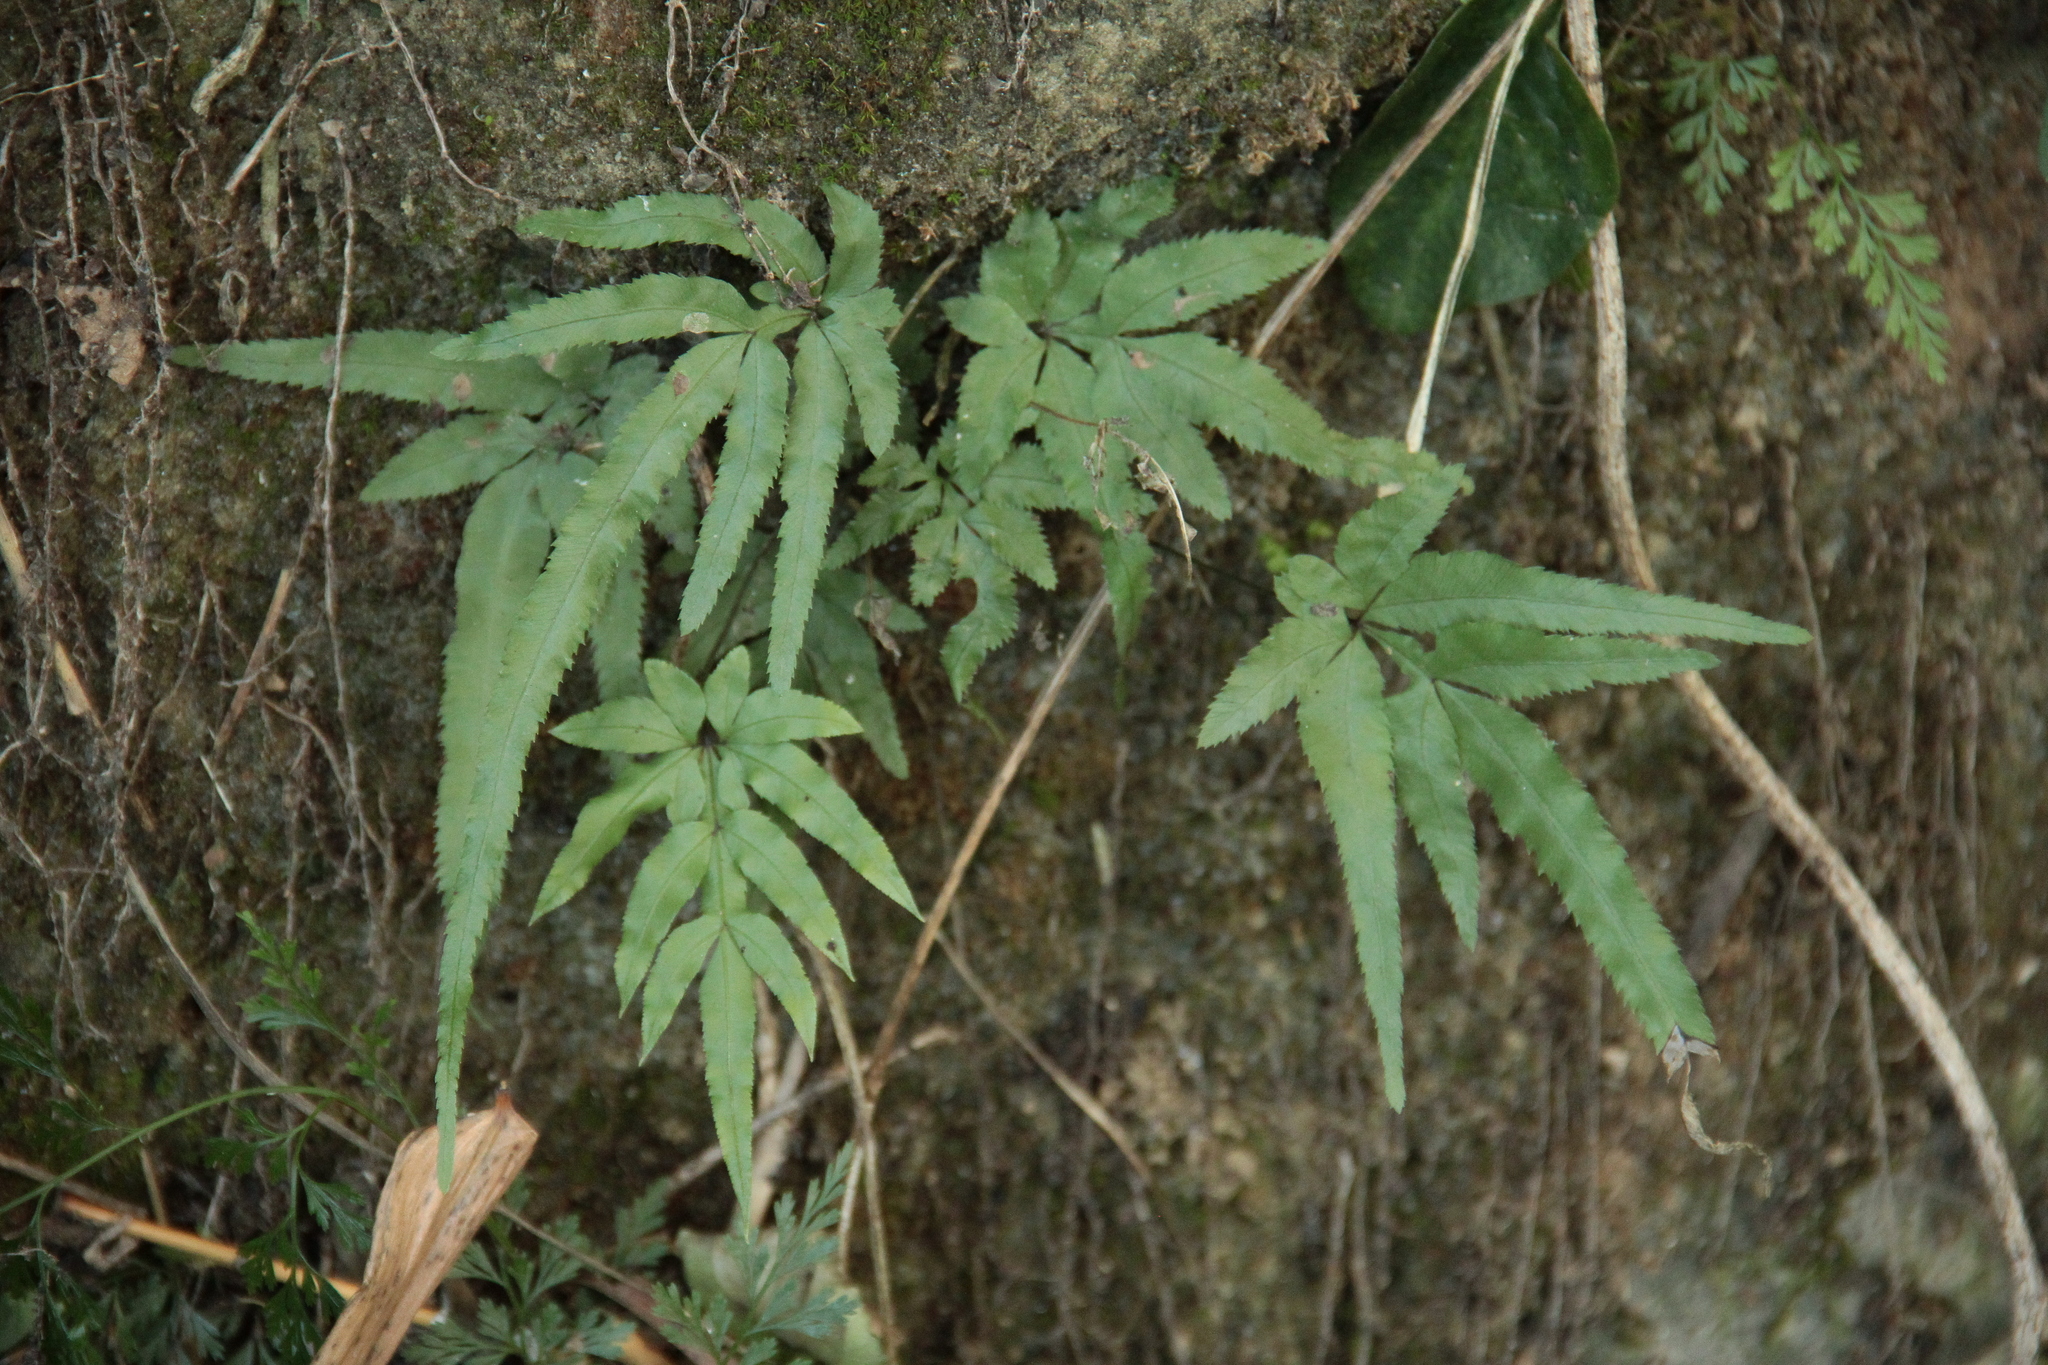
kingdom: Plantae
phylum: Tracheophyta
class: Polypodiopsida
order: Polypodiales
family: Pteridaceae
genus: Pteris
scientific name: Pteris multifida
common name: Spider brake
